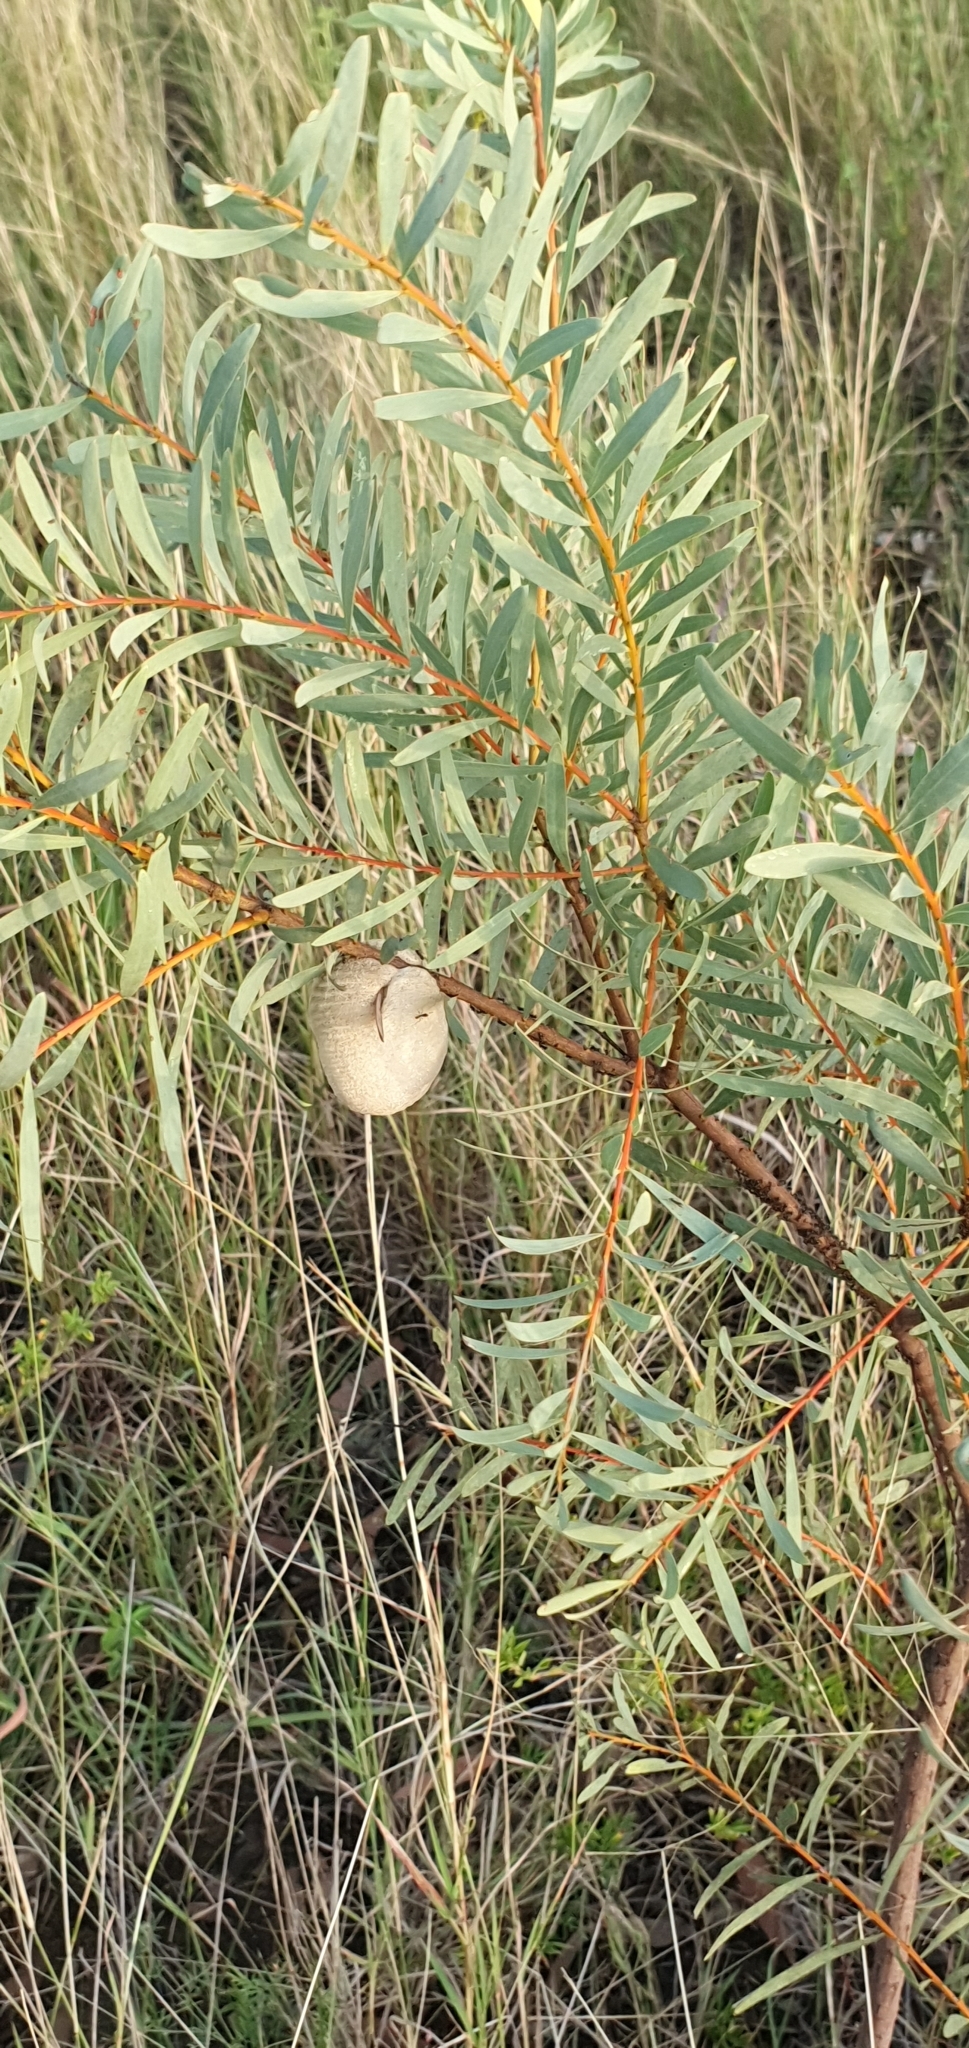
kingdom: Animalia
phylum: Arthropoda
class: Insecta
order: Mantodea
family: Mantidae
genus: Archimantis
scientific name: Archimantis latistyla
